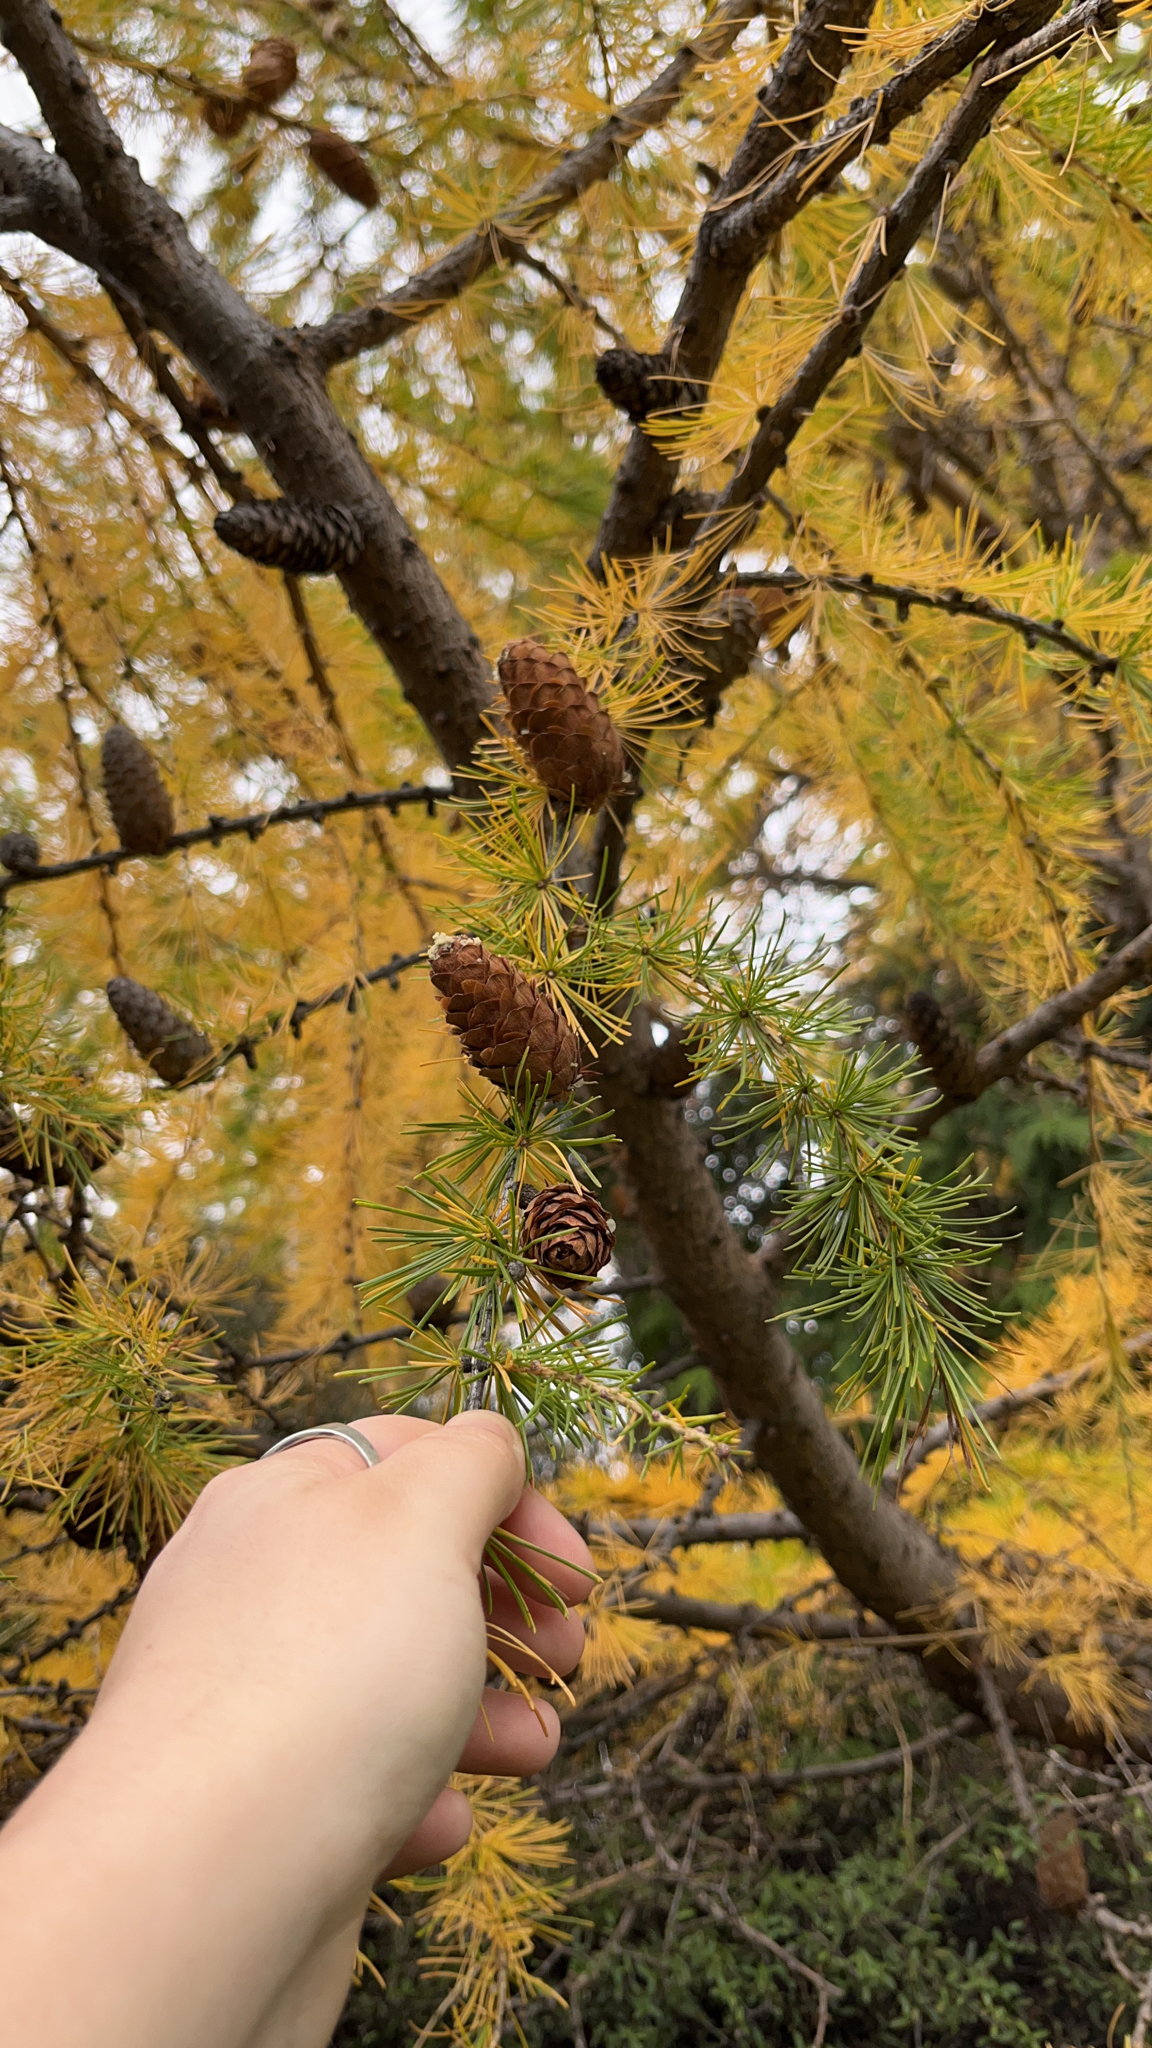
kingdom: Plantae
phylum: Tracheophyta
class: Pinopsida
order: Pinales
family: Pinaceae
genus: Larix
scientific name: Larix decidua
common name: European larch
